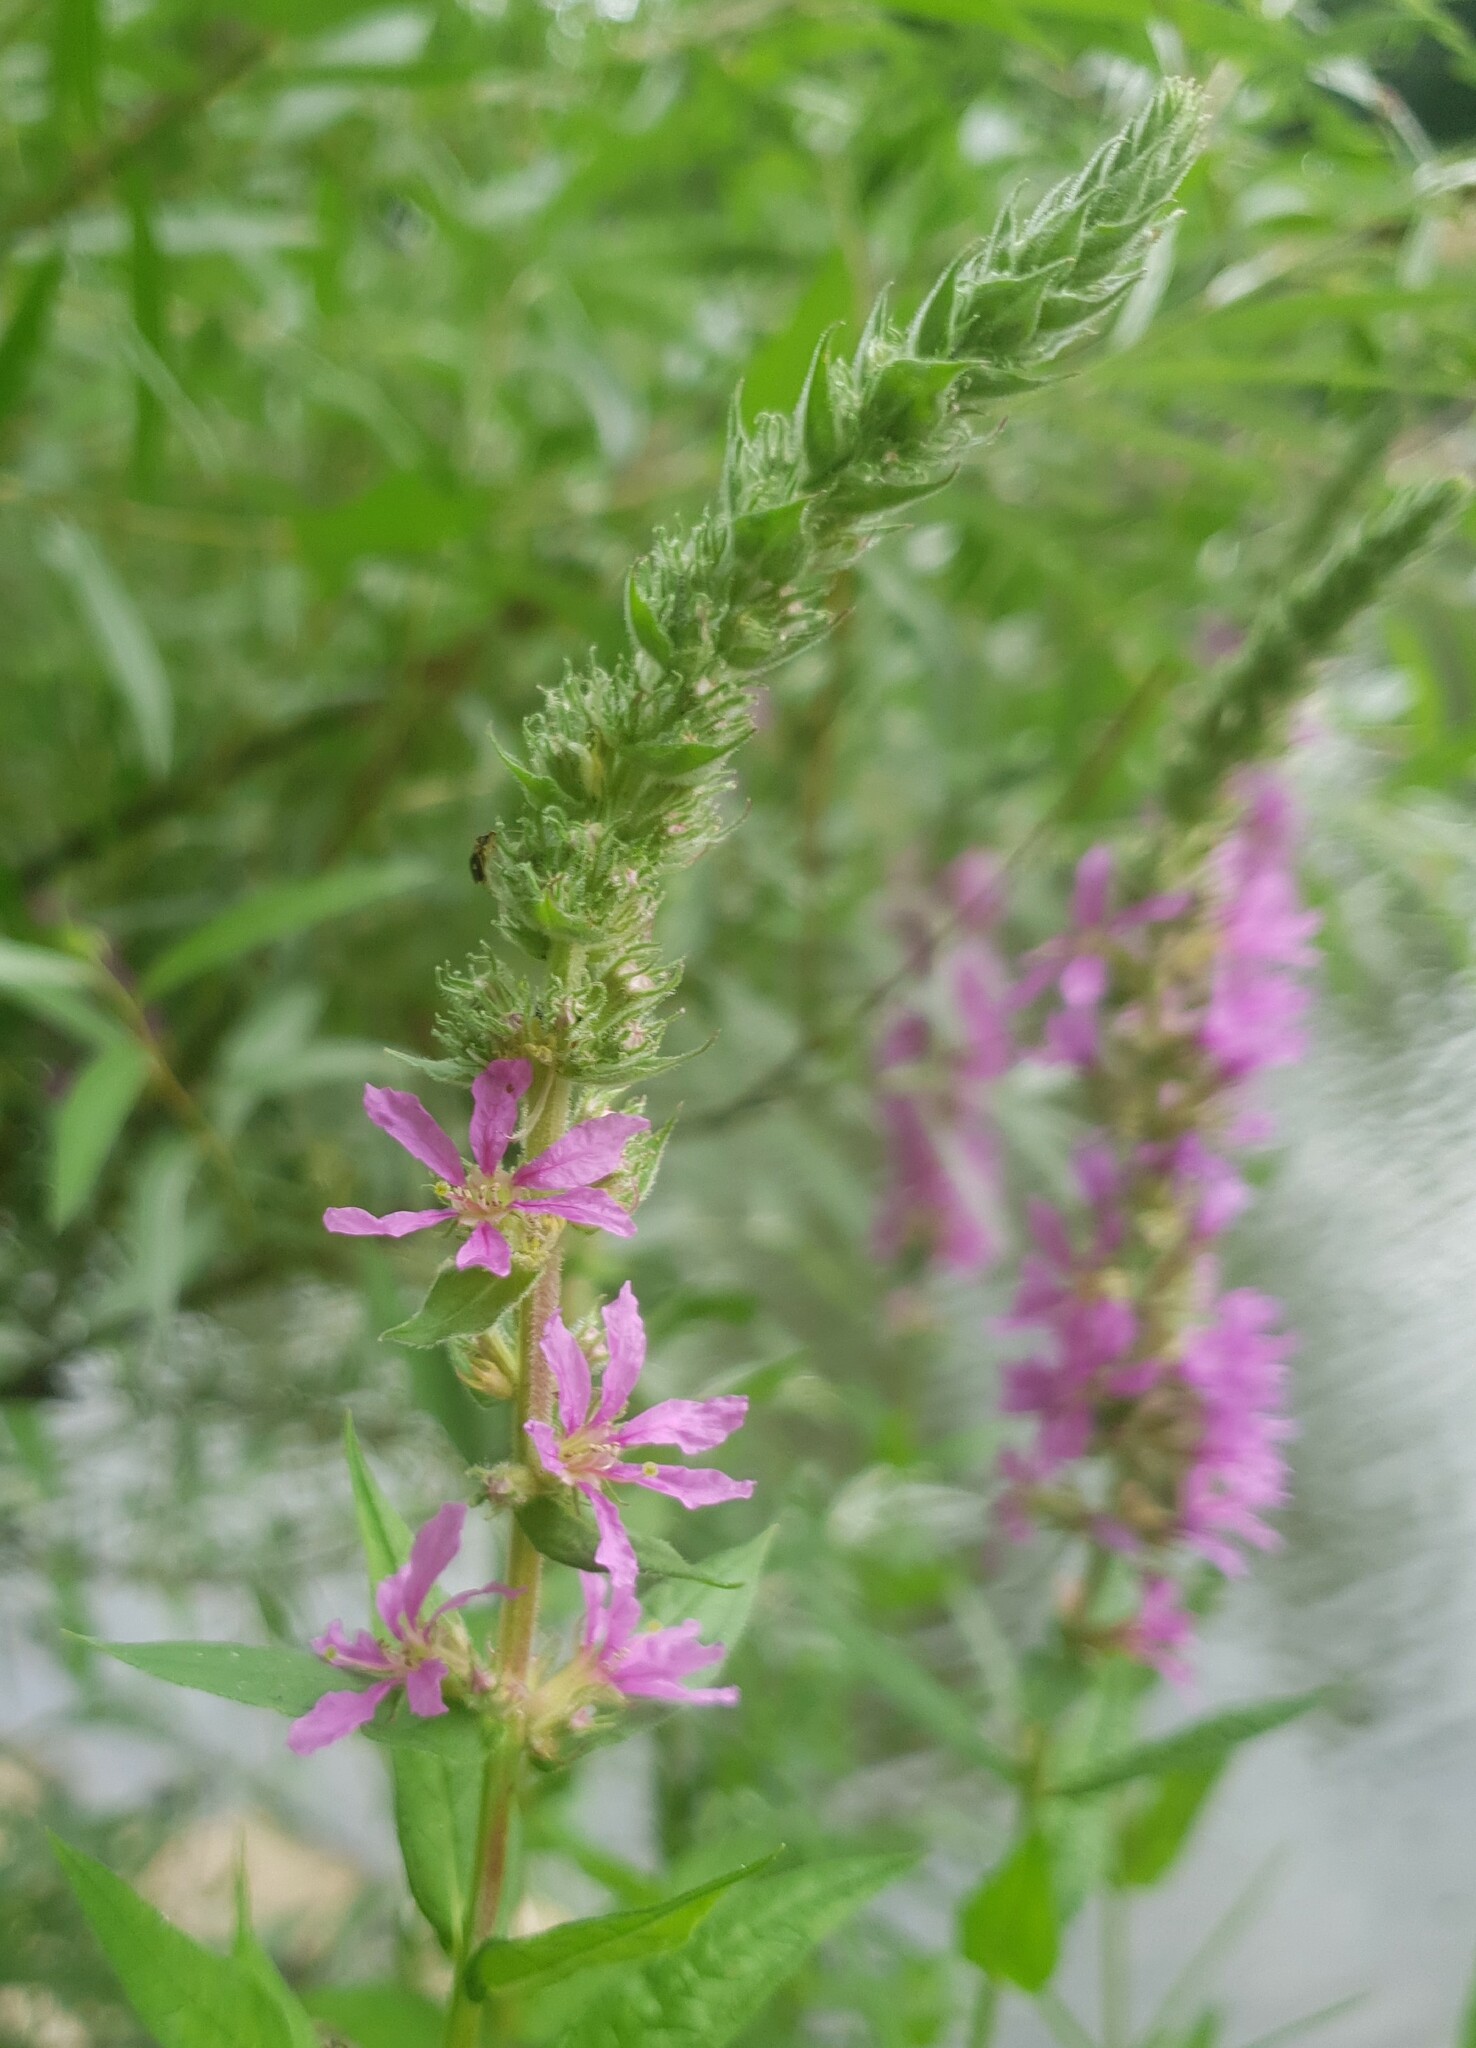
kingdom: Plantae
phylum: Tracheophyta
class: Magnoliopsida
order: Myrtales
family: Lythraceae
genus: Lythrum
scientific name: Lythrum salicaria
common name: Purple loosestrife
